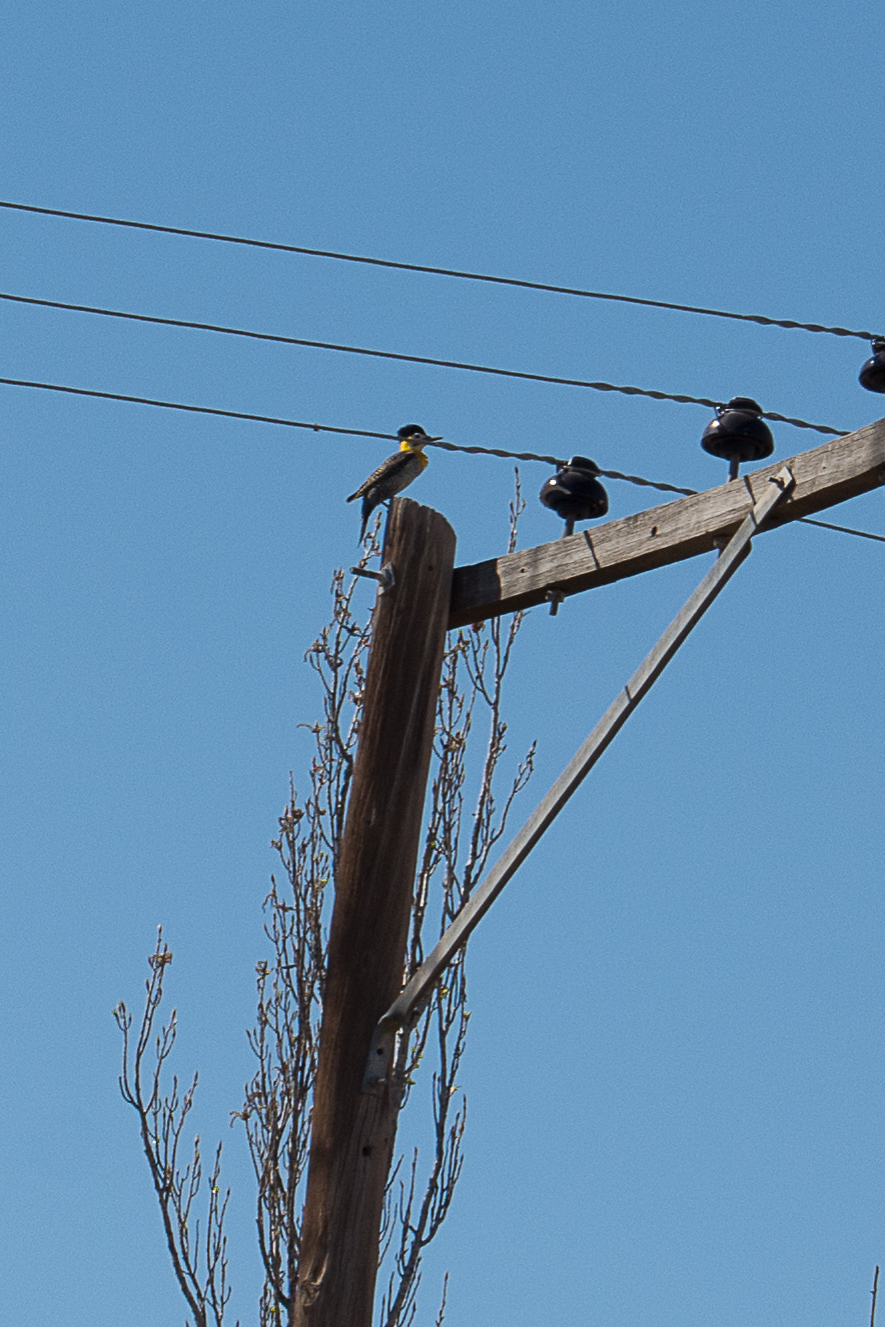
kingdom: Animalia
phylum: Chordata
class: Aves
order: Piciformes
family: Picidae
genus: Colaptes
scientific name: Colaptes campestris
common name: Campo flicker
